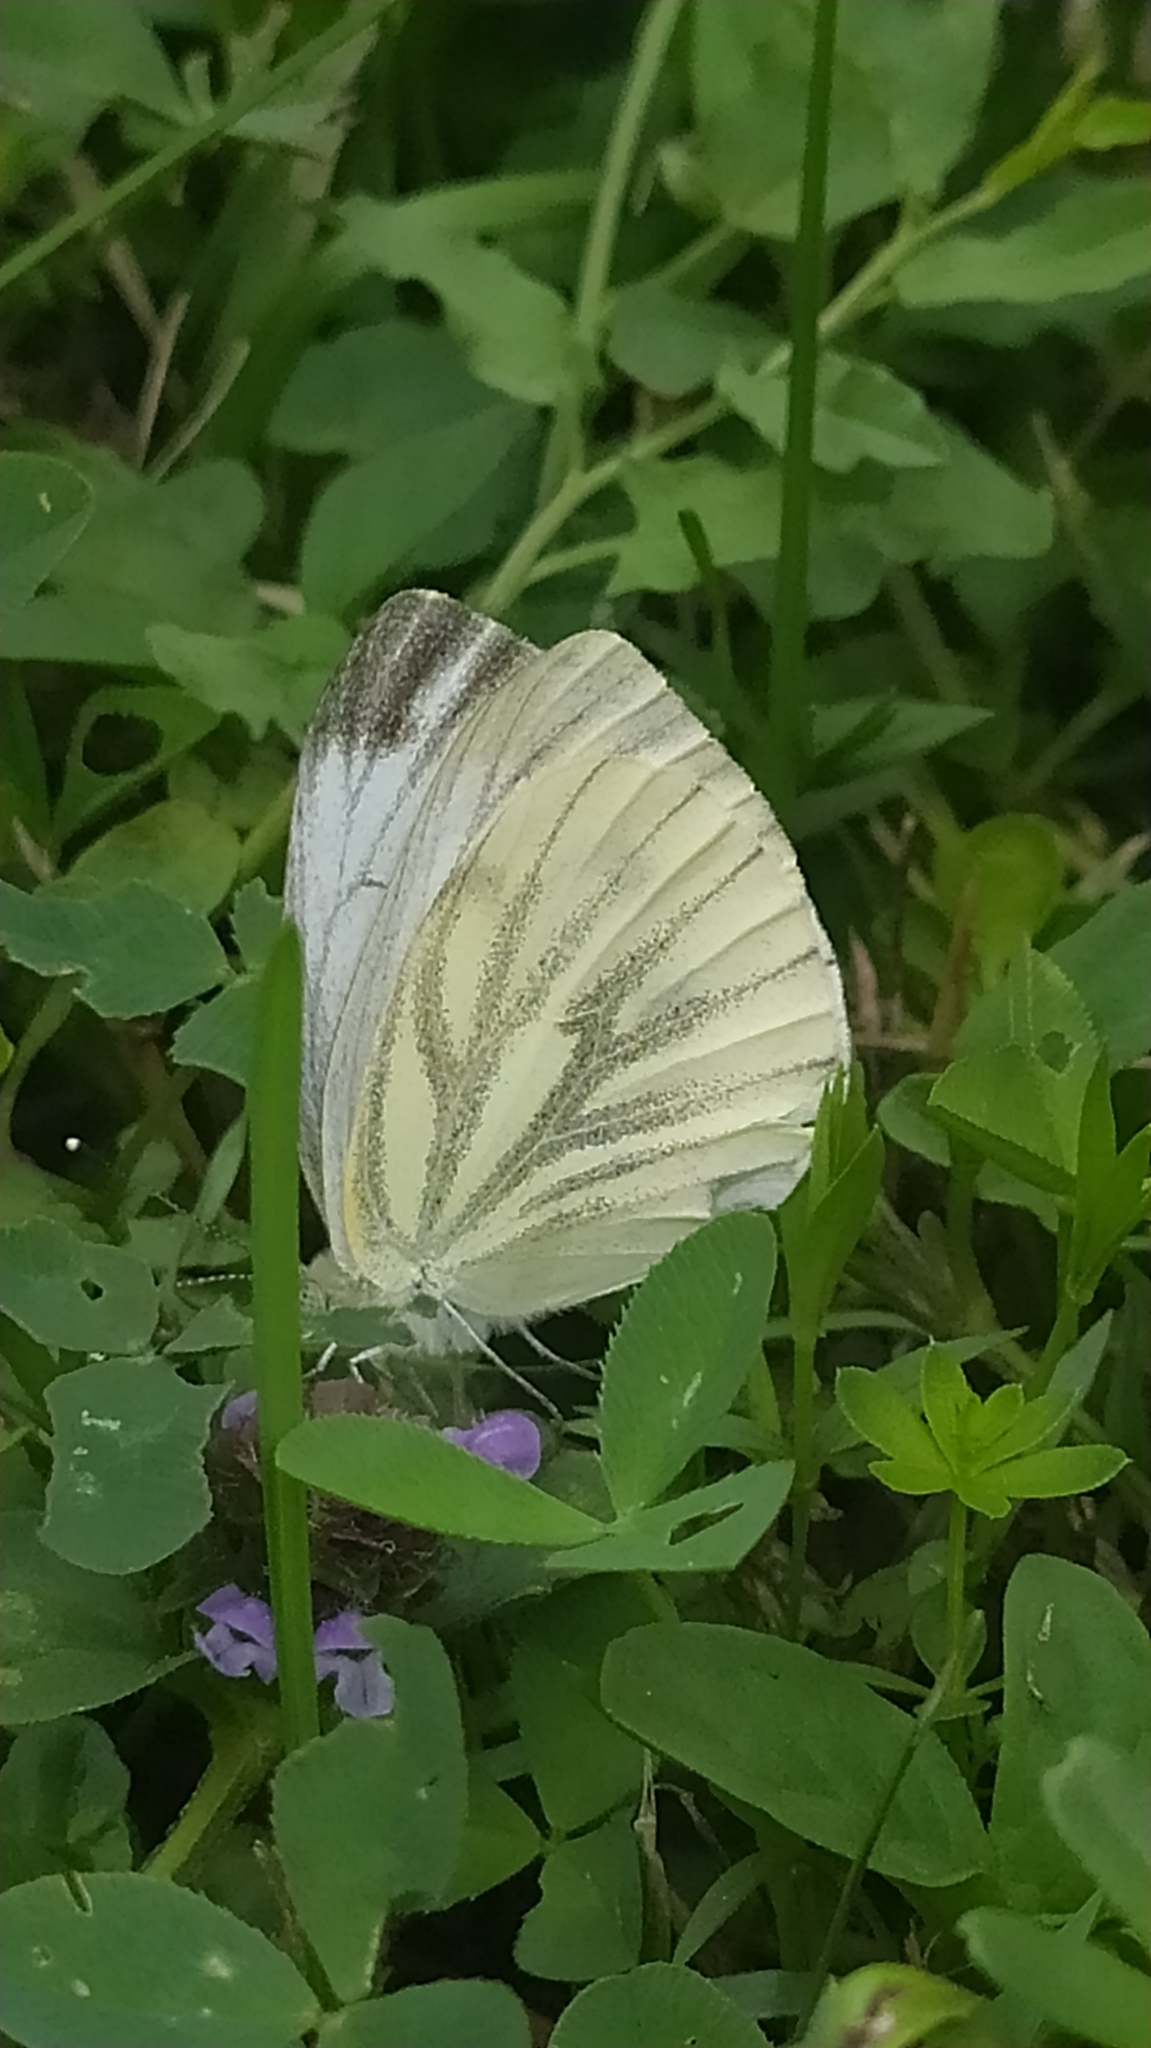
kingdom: Animalia
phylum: Arthropoda
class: Insecta
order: Lepidoptera
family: Pieridae
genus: Pieris
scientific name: Pieris napi
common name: Green-veined white
